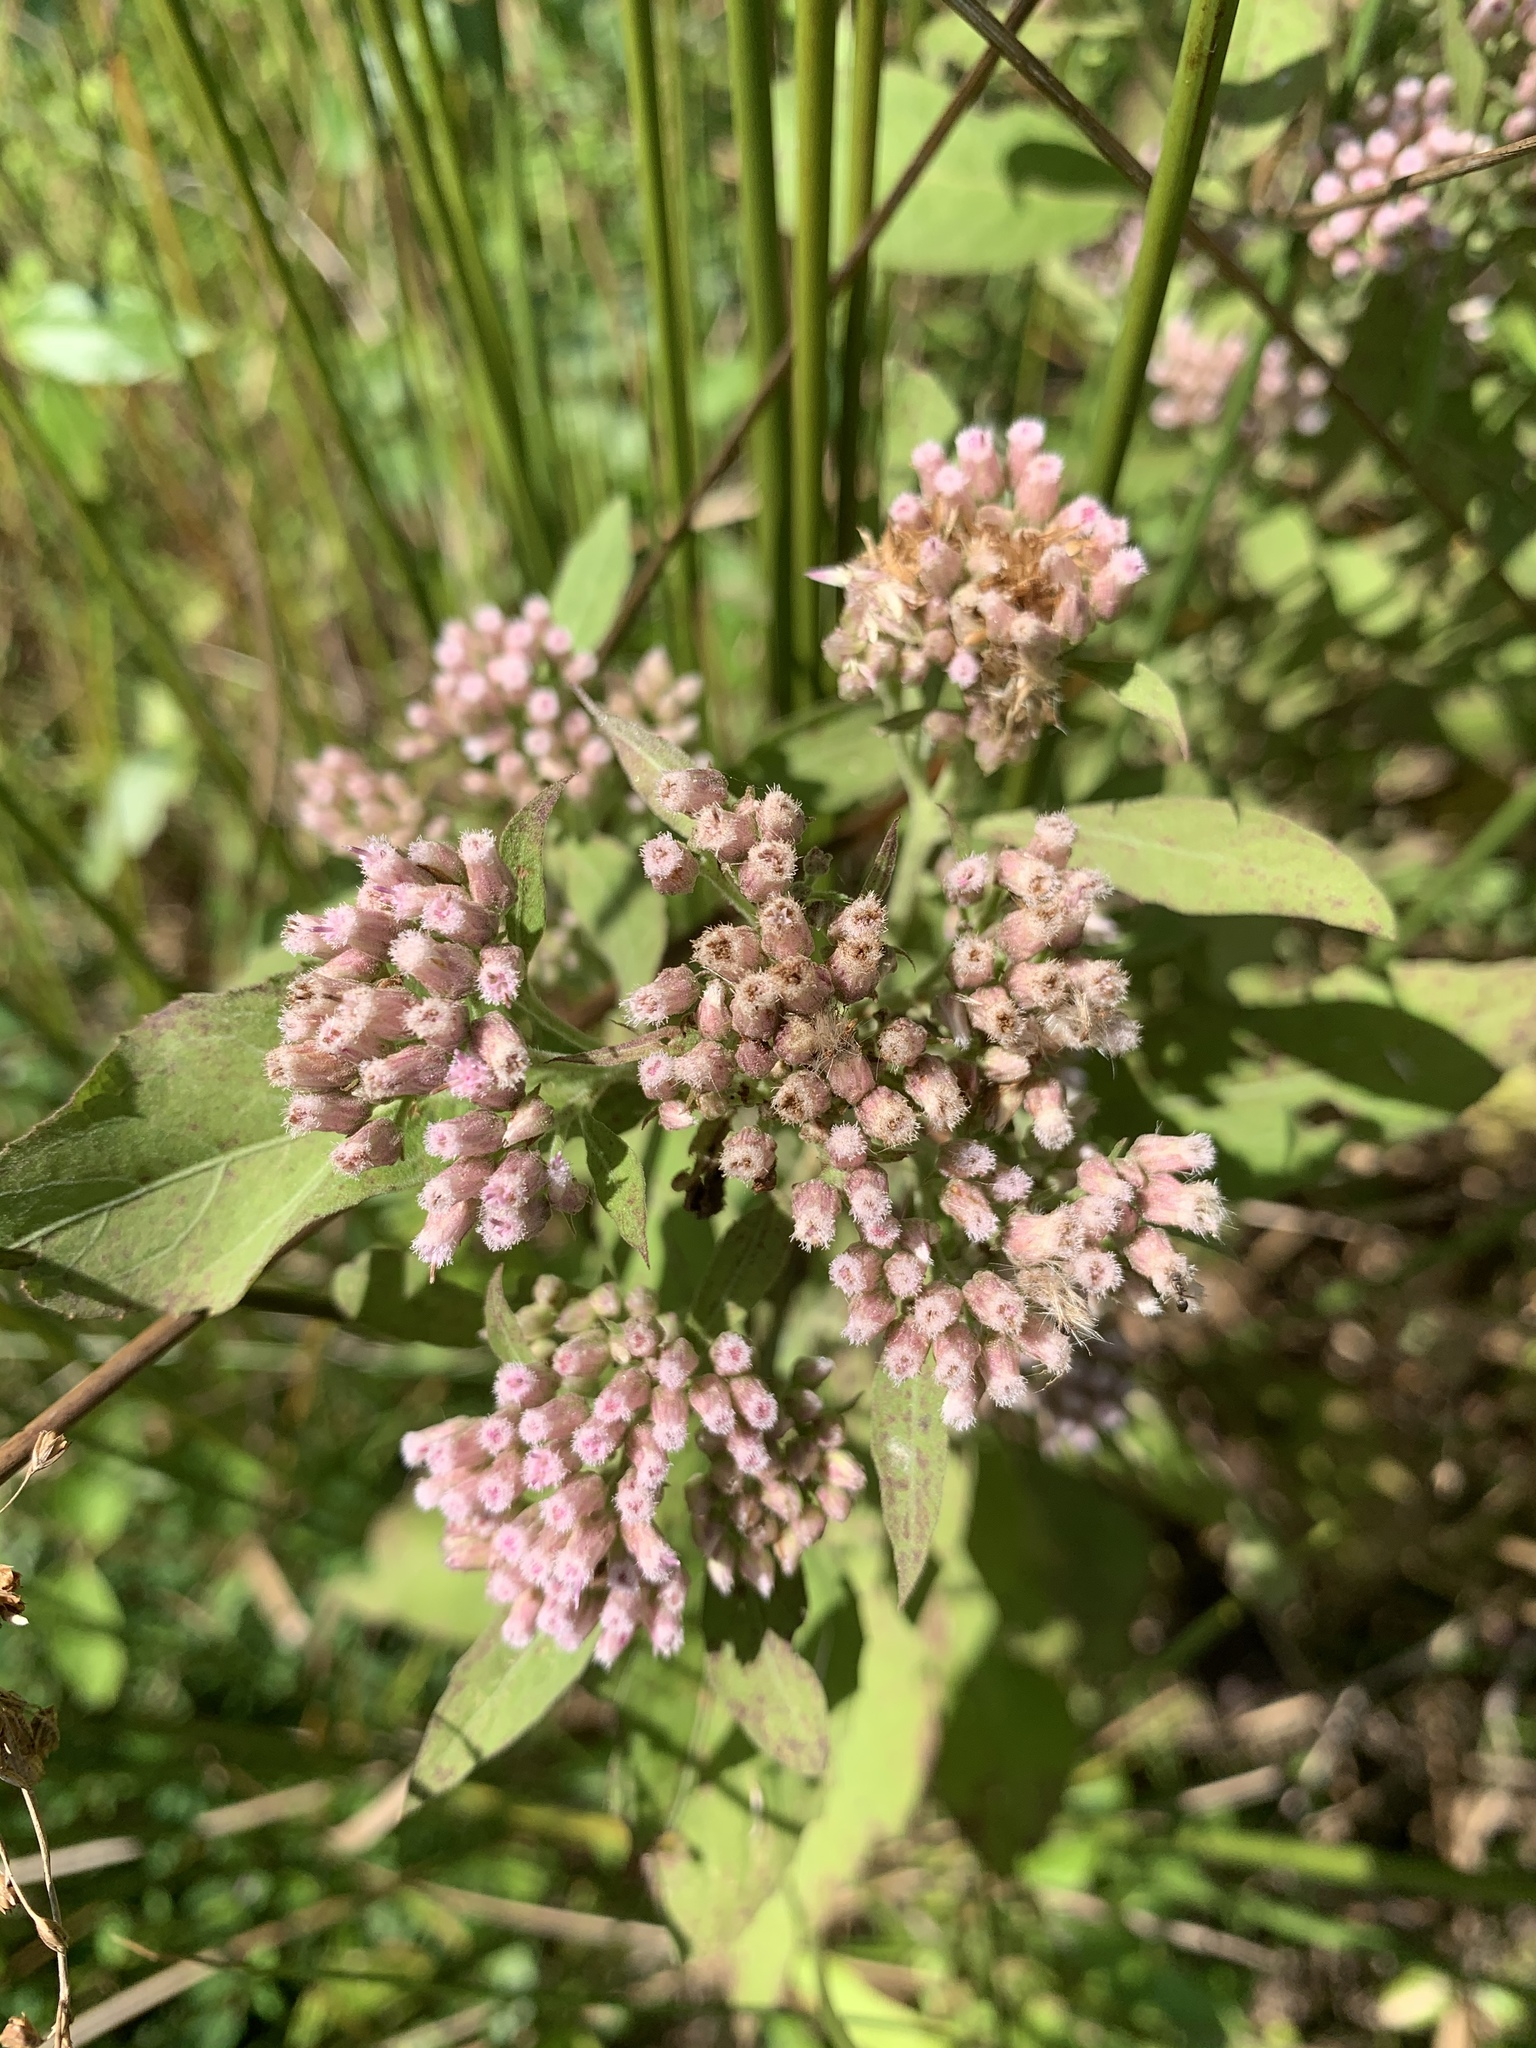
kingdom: Plantae
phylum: Tracheophyta
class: Magnoliopsida
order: Asterales
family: Asteraceae
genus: Pluchea
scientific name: Pluchea camphorata
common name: Camphor pluchea
